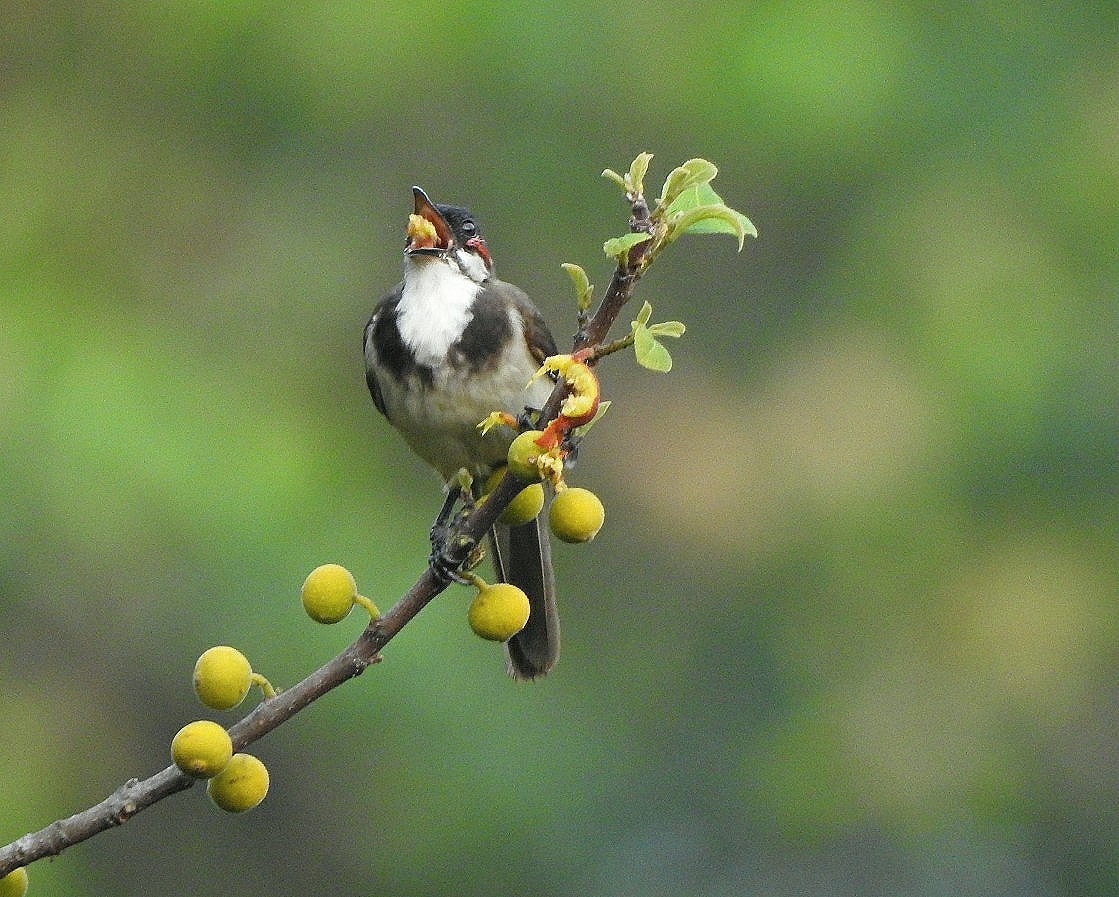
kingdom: Animalia
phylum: Chordata
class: Aves
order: Passeriformes
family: Pycnonotidae
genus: Pycnonotus
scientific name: Pycnonotus jocosus
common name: Red-whiskered bulbul
